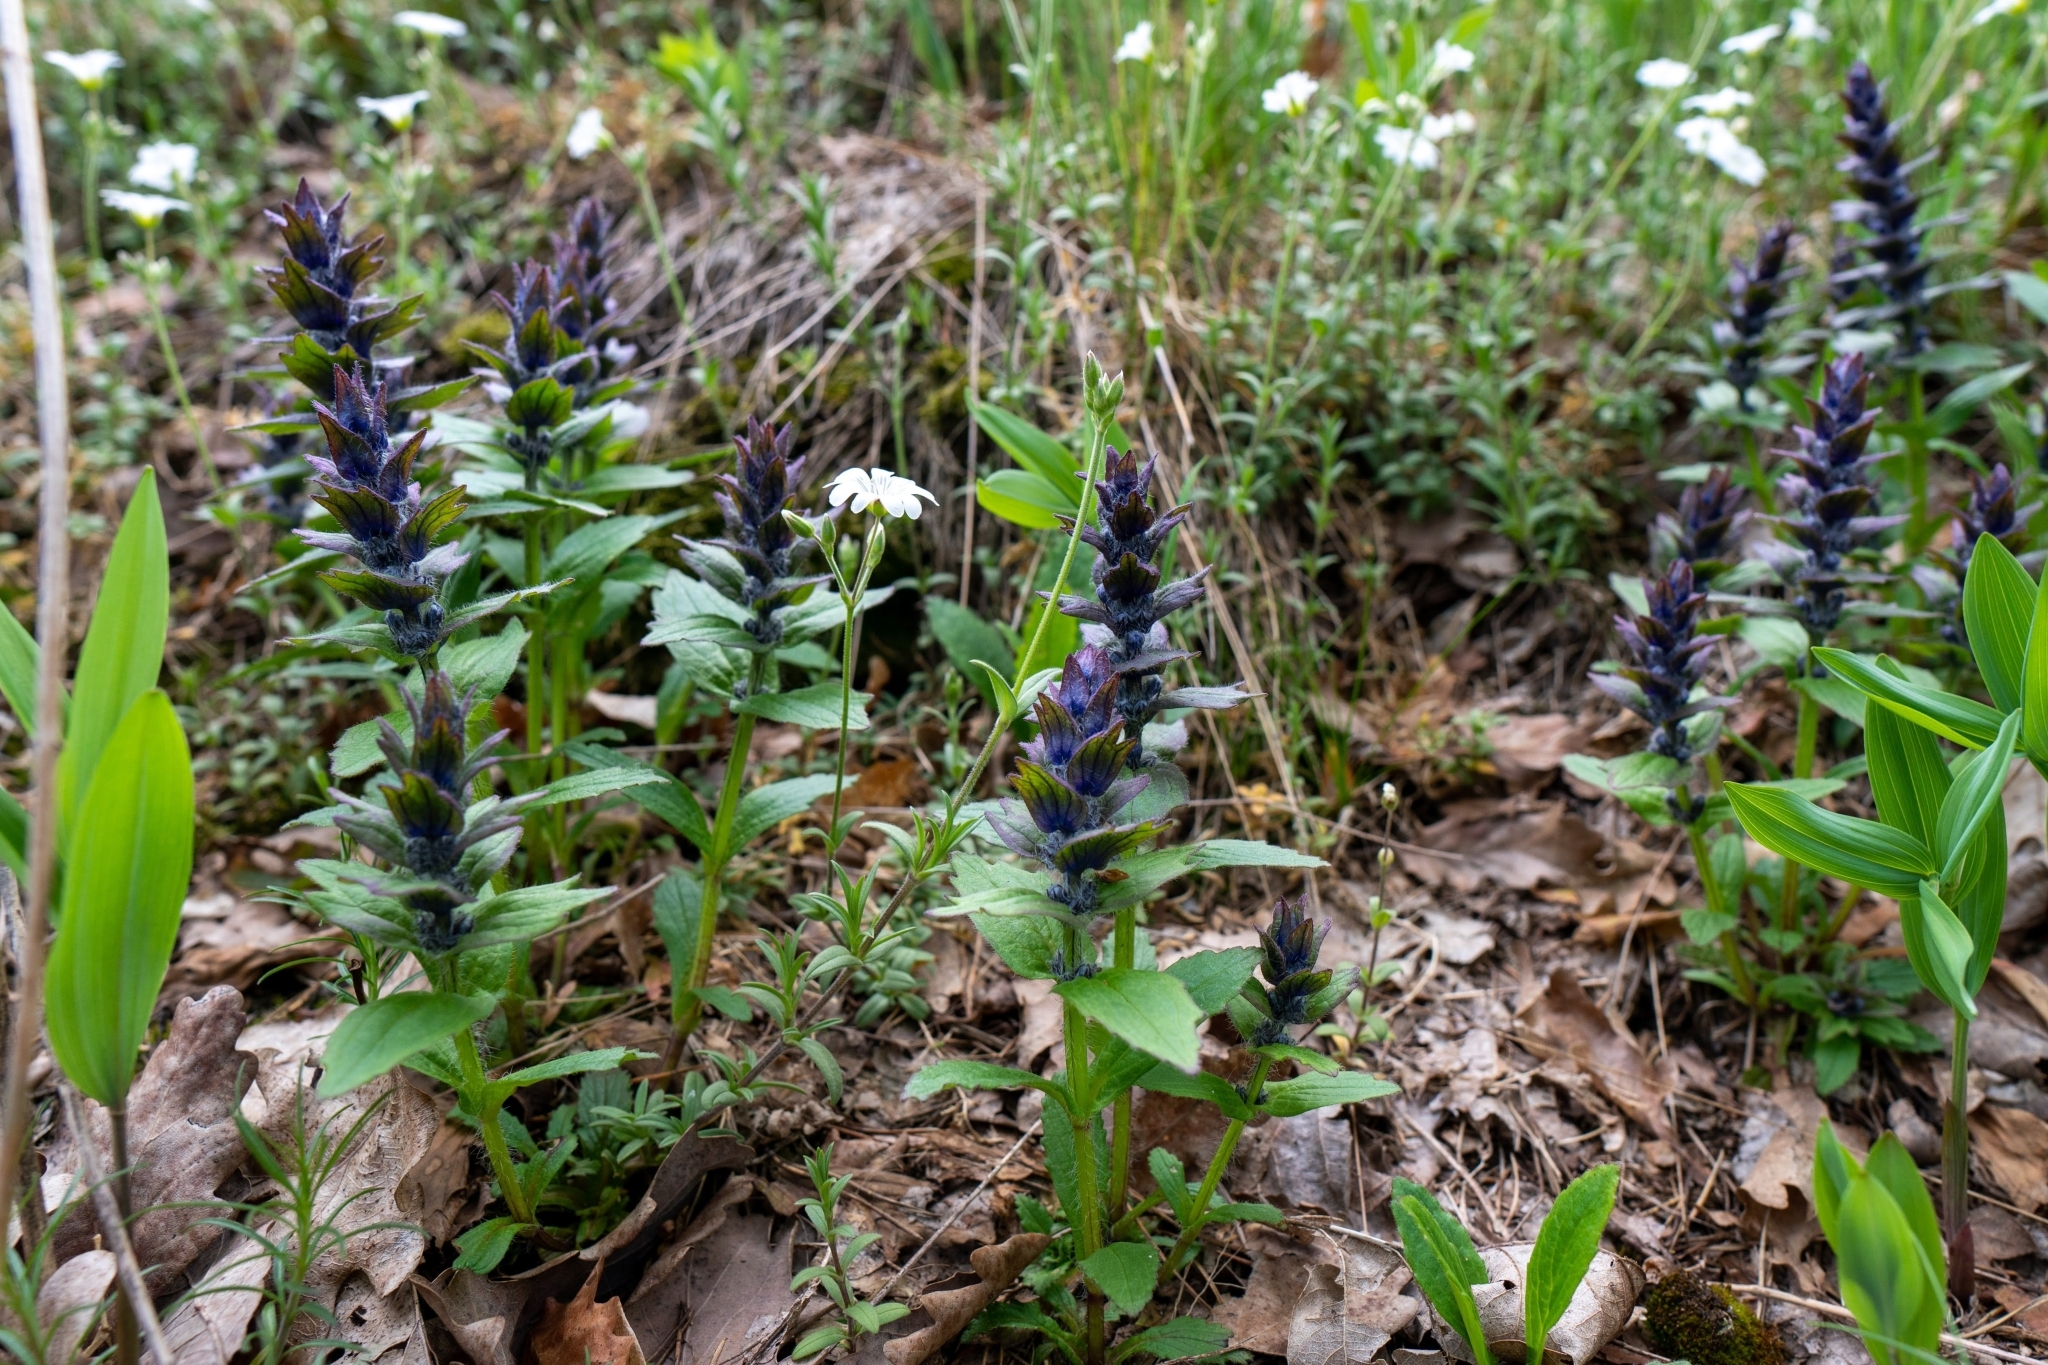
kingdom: Plantae
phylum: Tracheophyta
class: Magnoliopsida
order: Lamiales
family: Lamiaceae
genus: Ajuga
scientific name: Ajuga genevensis
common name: Blue bugle
